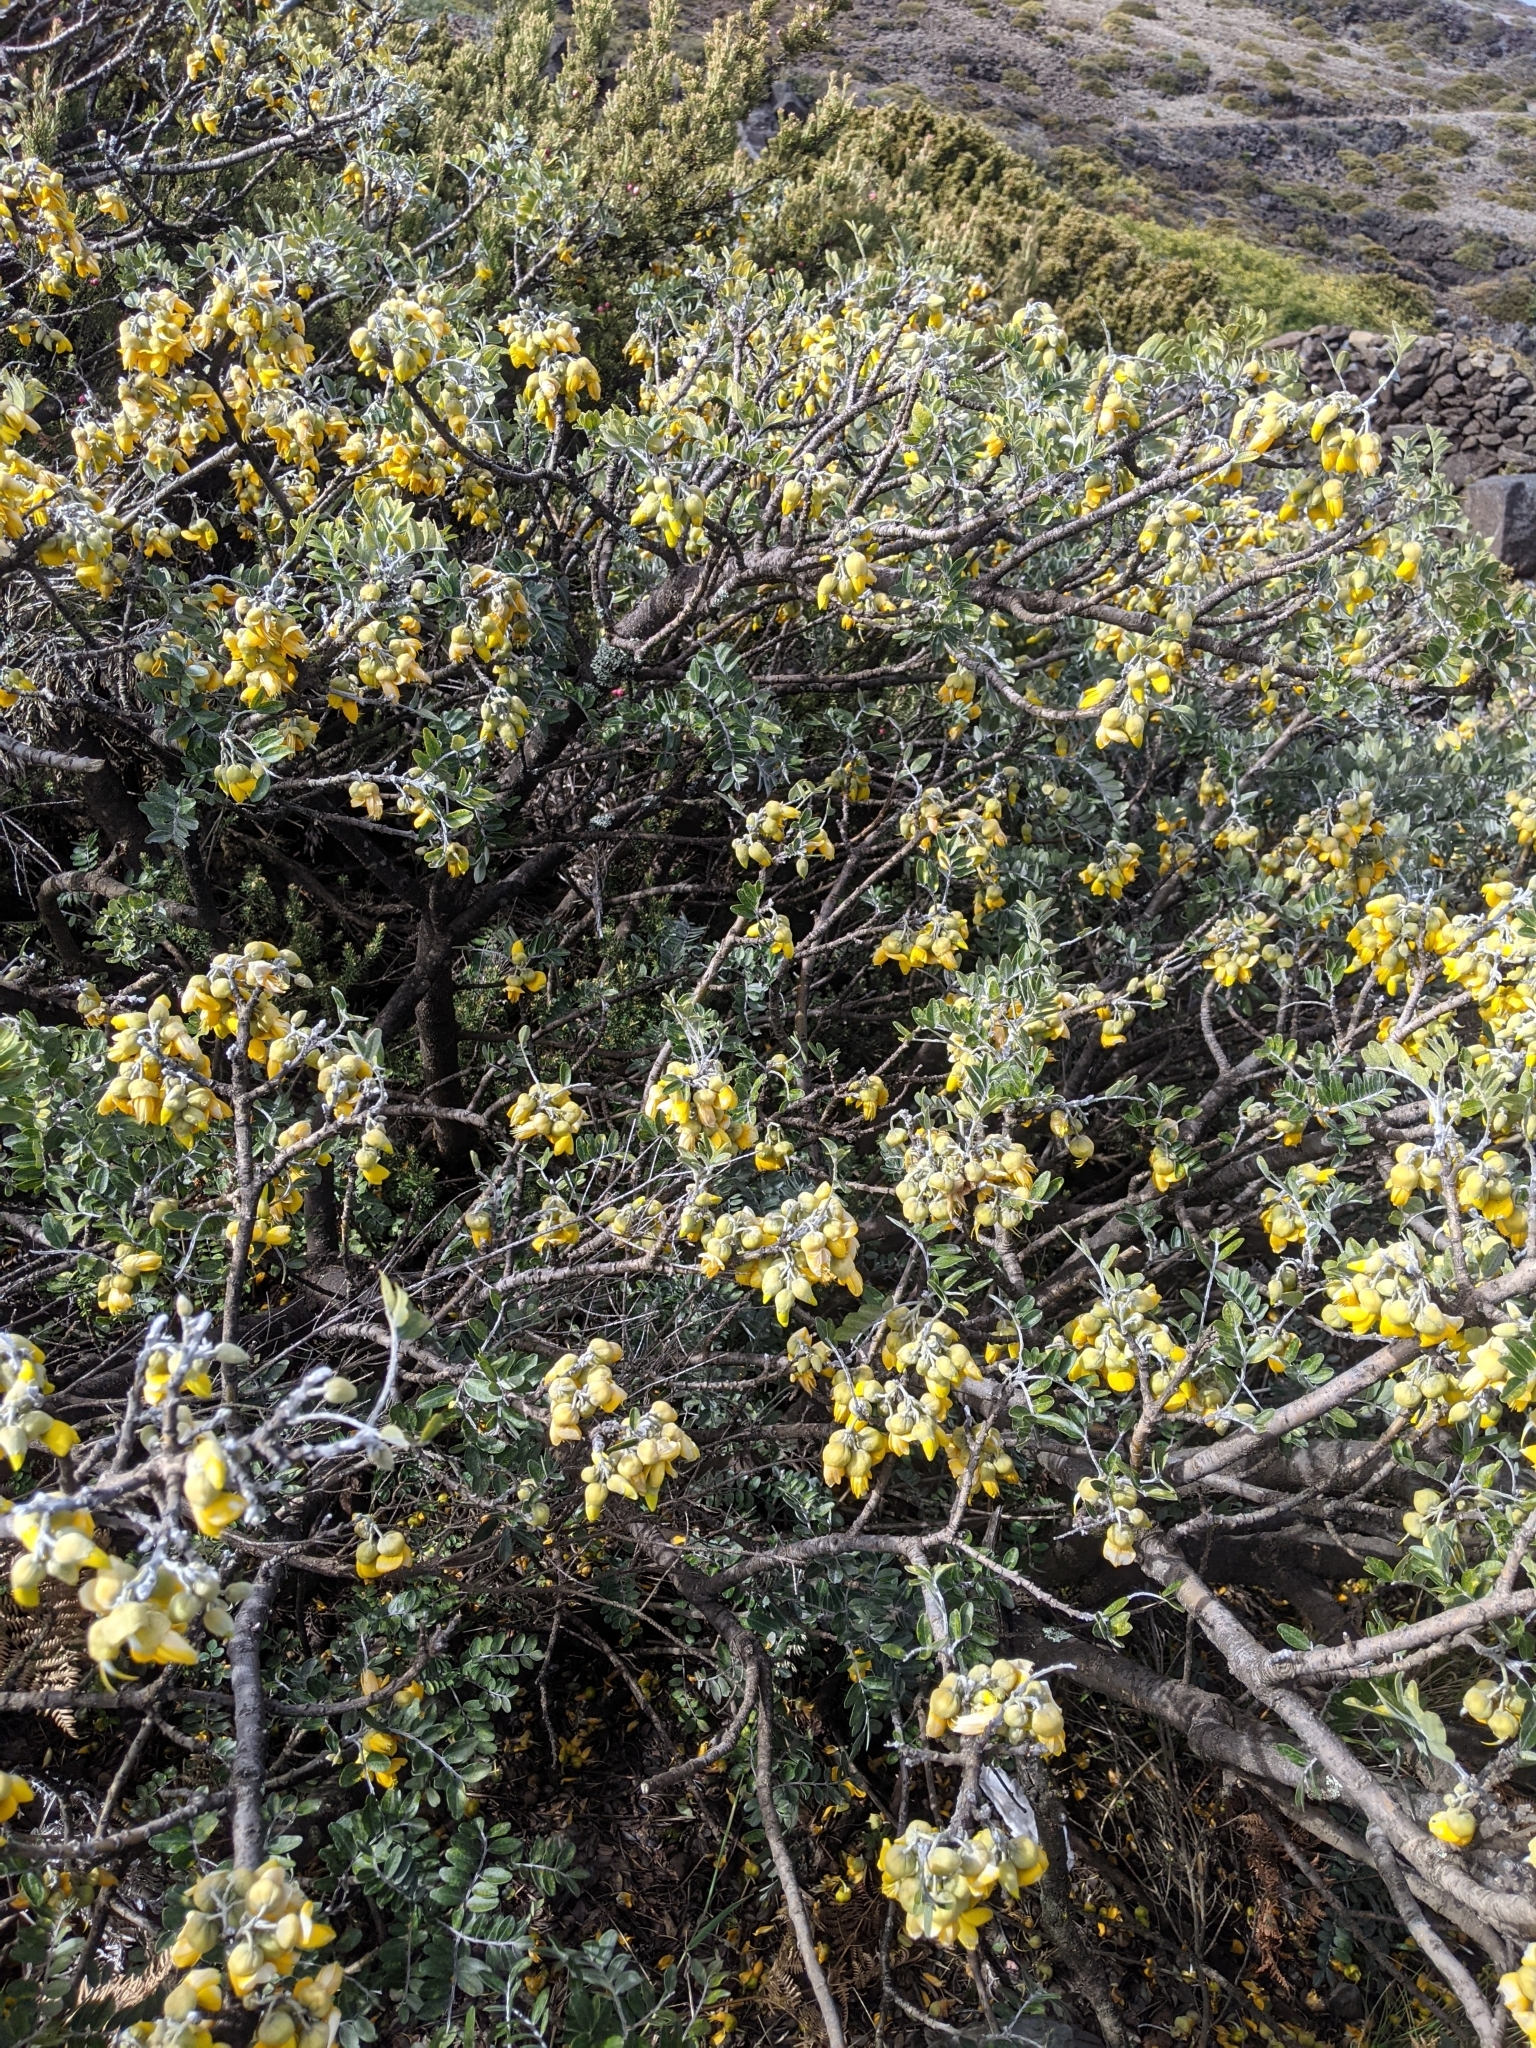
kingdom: Plantae
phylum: Tracheophyta
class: Magnoliopsida
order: Fabales
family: Fabaceae
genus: Sophora
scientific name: Sophora chrysophylla
